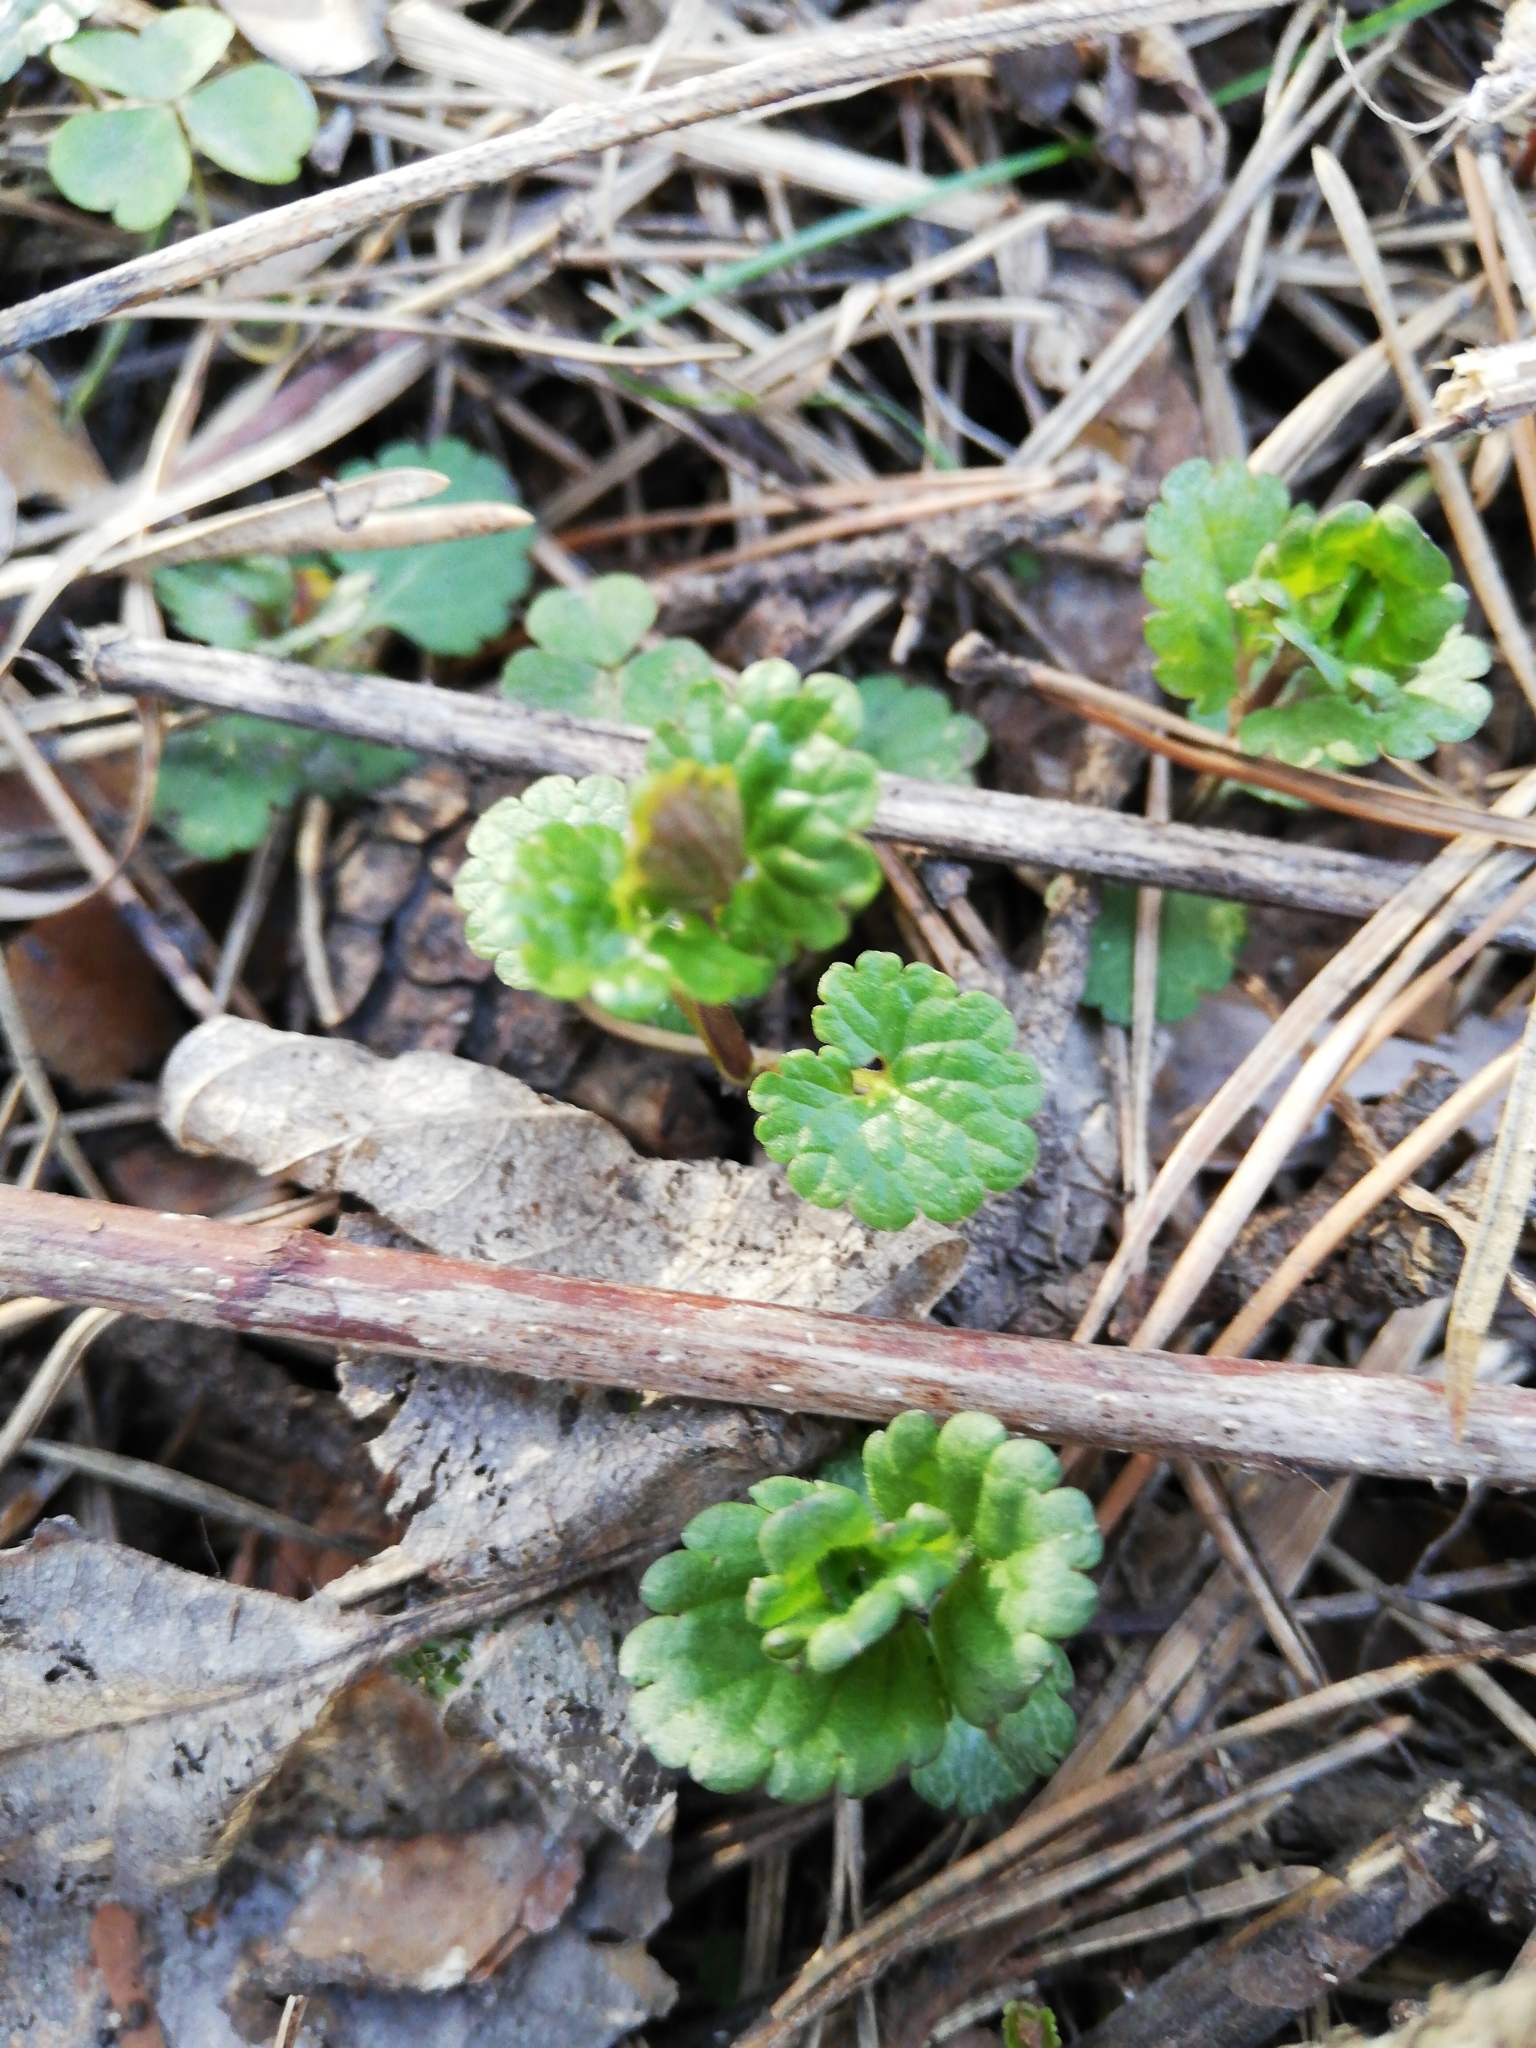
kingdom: Plantae
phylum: Tracheophyta
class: Magnoliopsida
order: Lamiales
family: Lamiaceae
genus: Glechoma
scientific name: Glechoma hederacea
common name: Ground ivy
